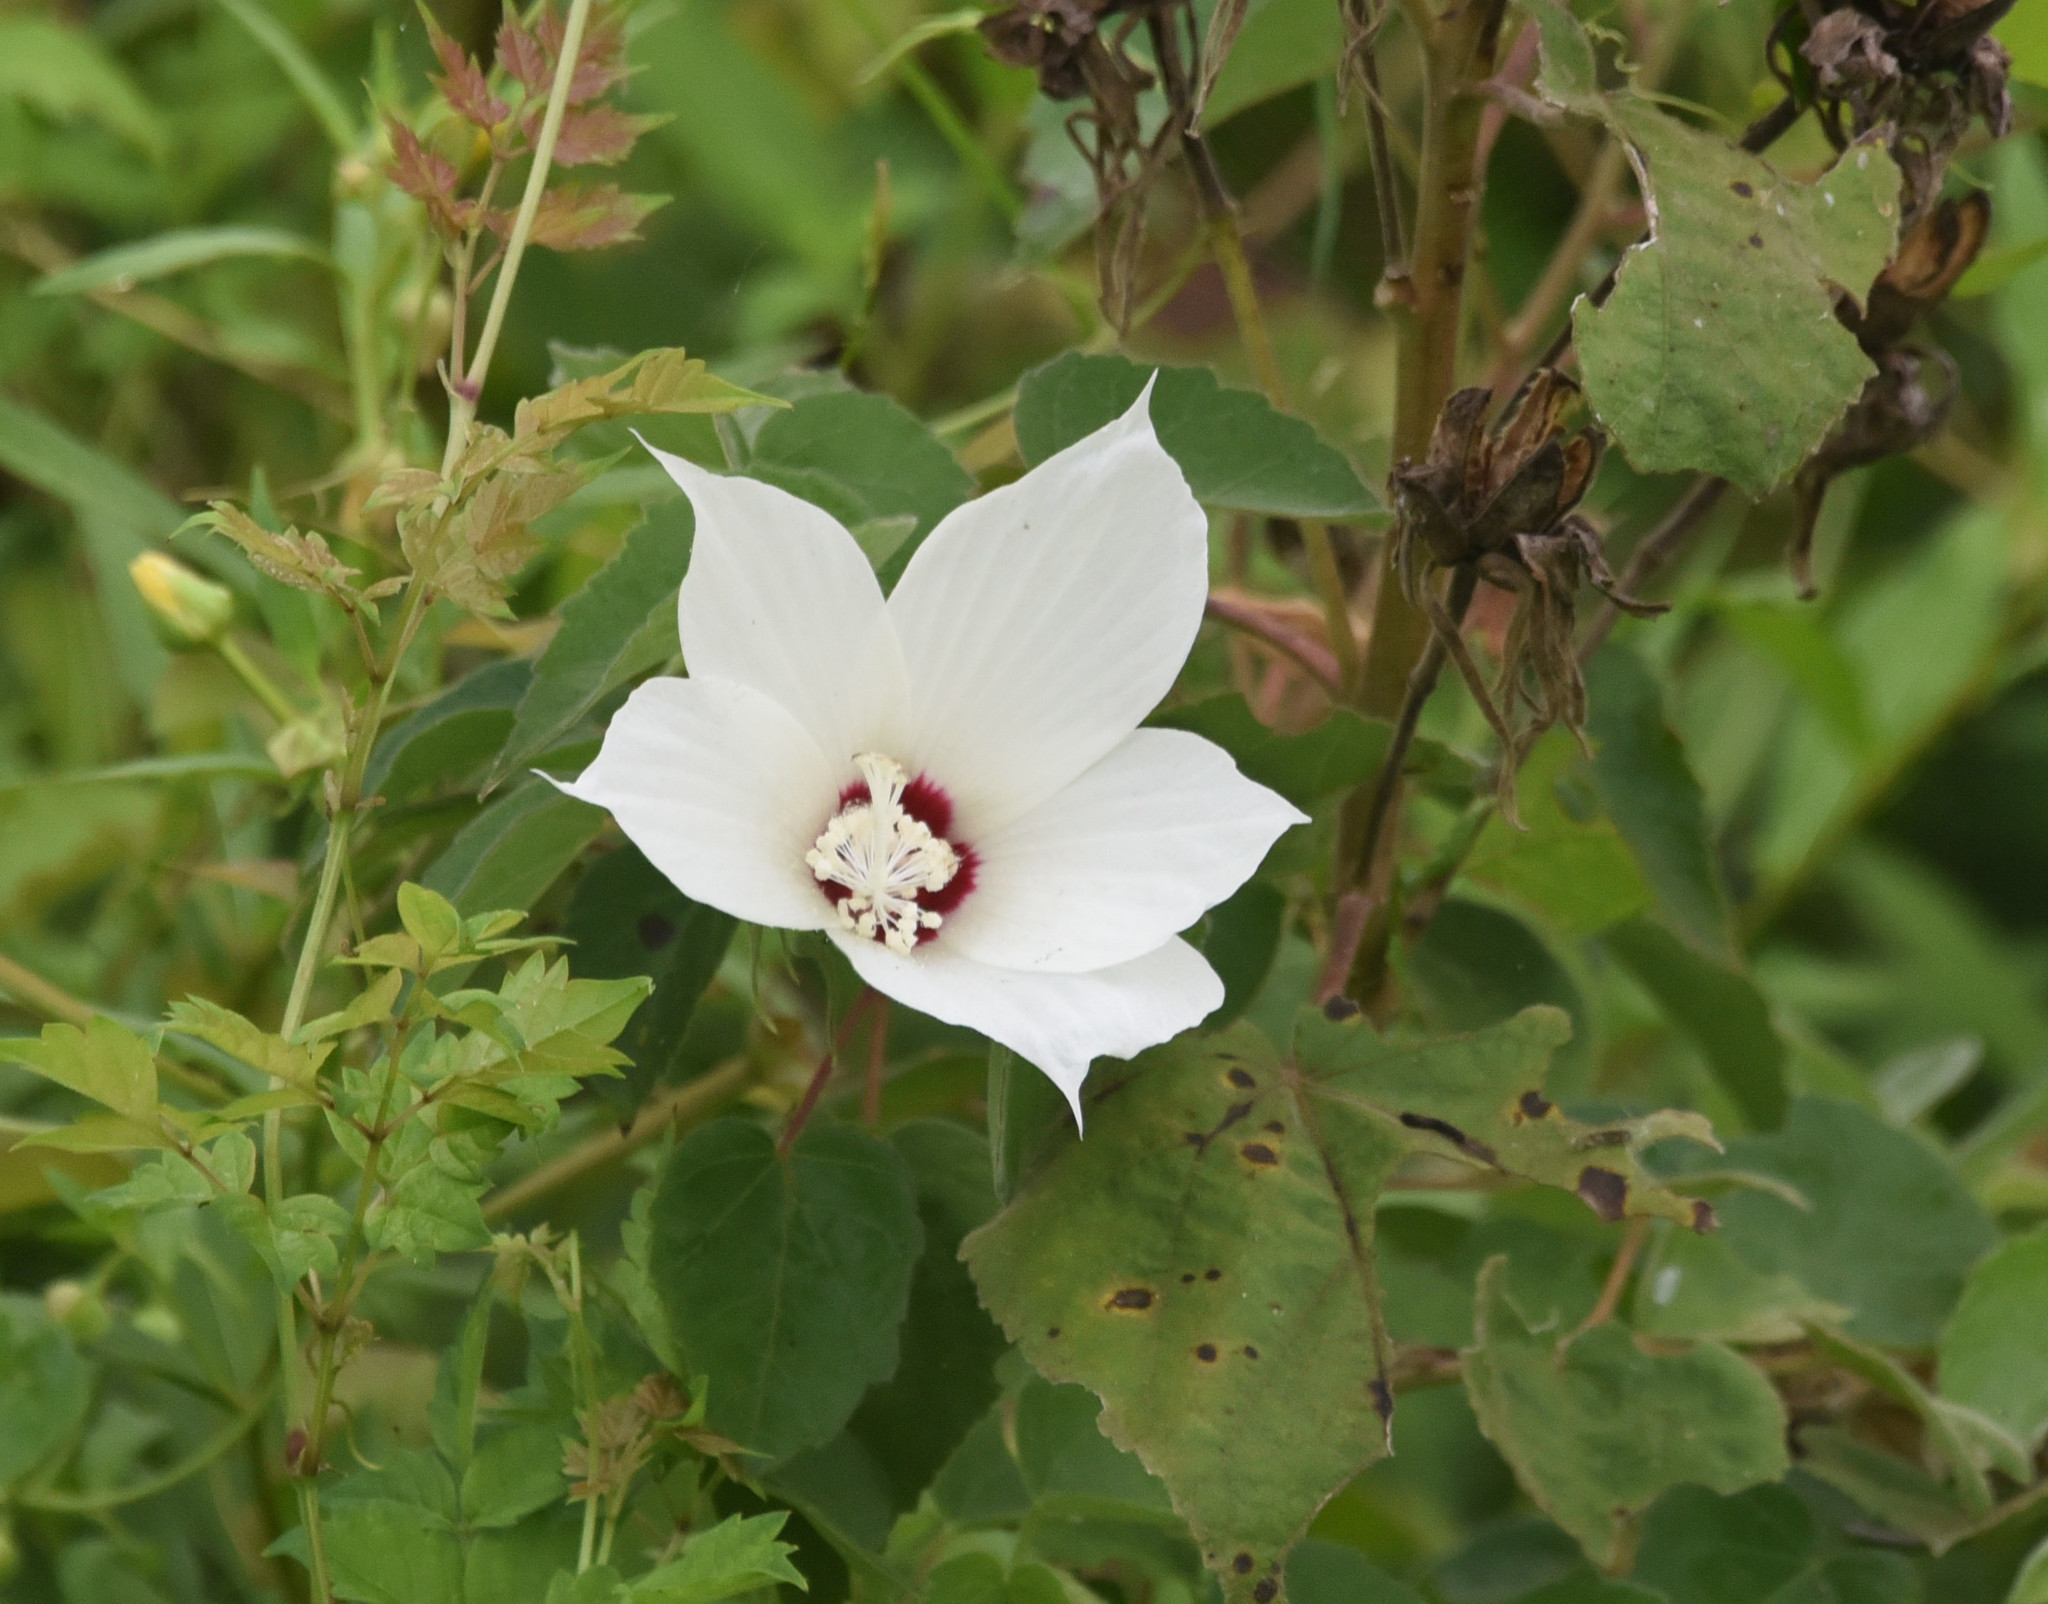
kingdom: Plantae
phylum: Tracheophyta
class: Magnoliopsida
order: Malvales
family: Malvaceae
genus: Hibiscus
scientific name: Hibiscus moscheutos
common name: Common rose-mallow
